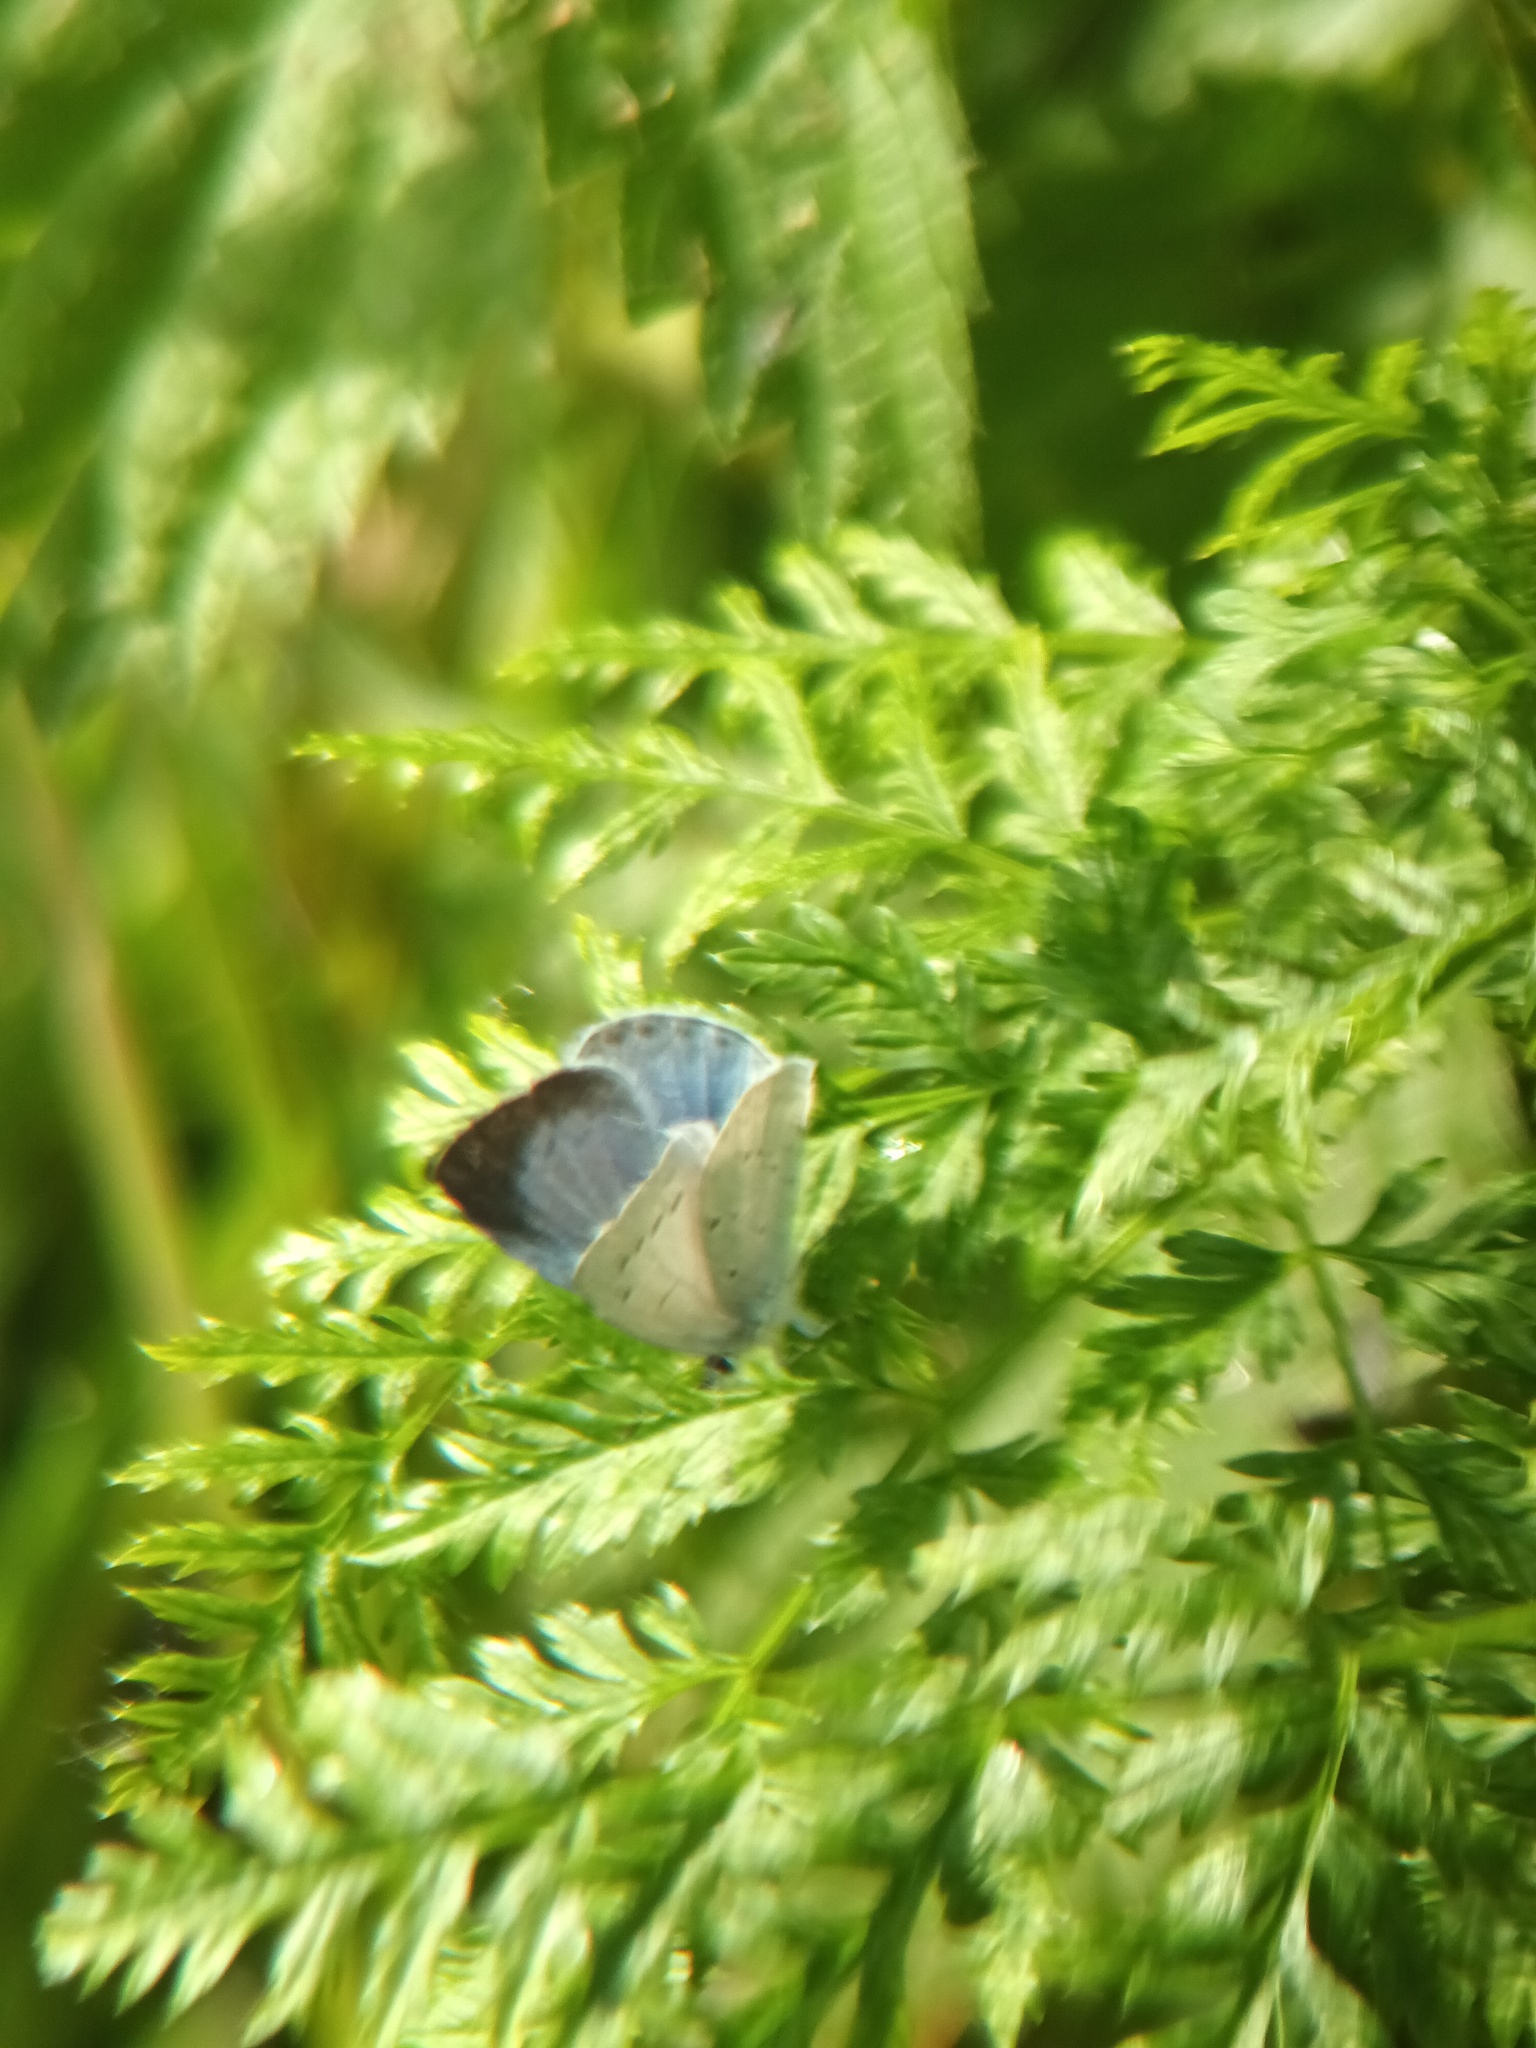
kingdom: Animalia
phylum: Arthropoda
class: Insecta
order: Lepidoptera
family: Lycaenidae
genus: Celastrina
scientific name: Celastrina argiolus
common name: Holly blue
